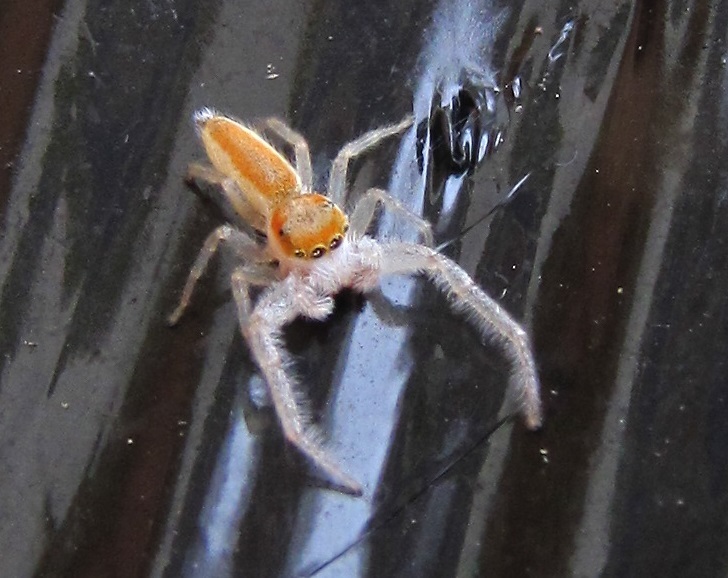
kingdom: Animalia
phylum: Arthropoda
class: Arachnida
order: Araneae
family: Salticidae
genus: Hentzia
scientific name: Hentzia mitrata
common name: White-jawed jumping spider
